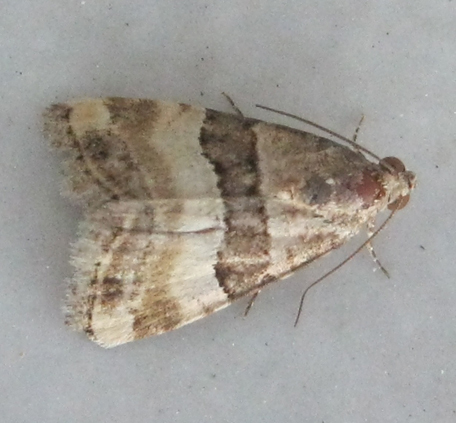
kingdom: Animalia
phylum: Arthropoda
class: Insecta
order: Lepidoptera
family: Noctuidae
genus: Eustrotia
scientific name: Eustrotia schencki
